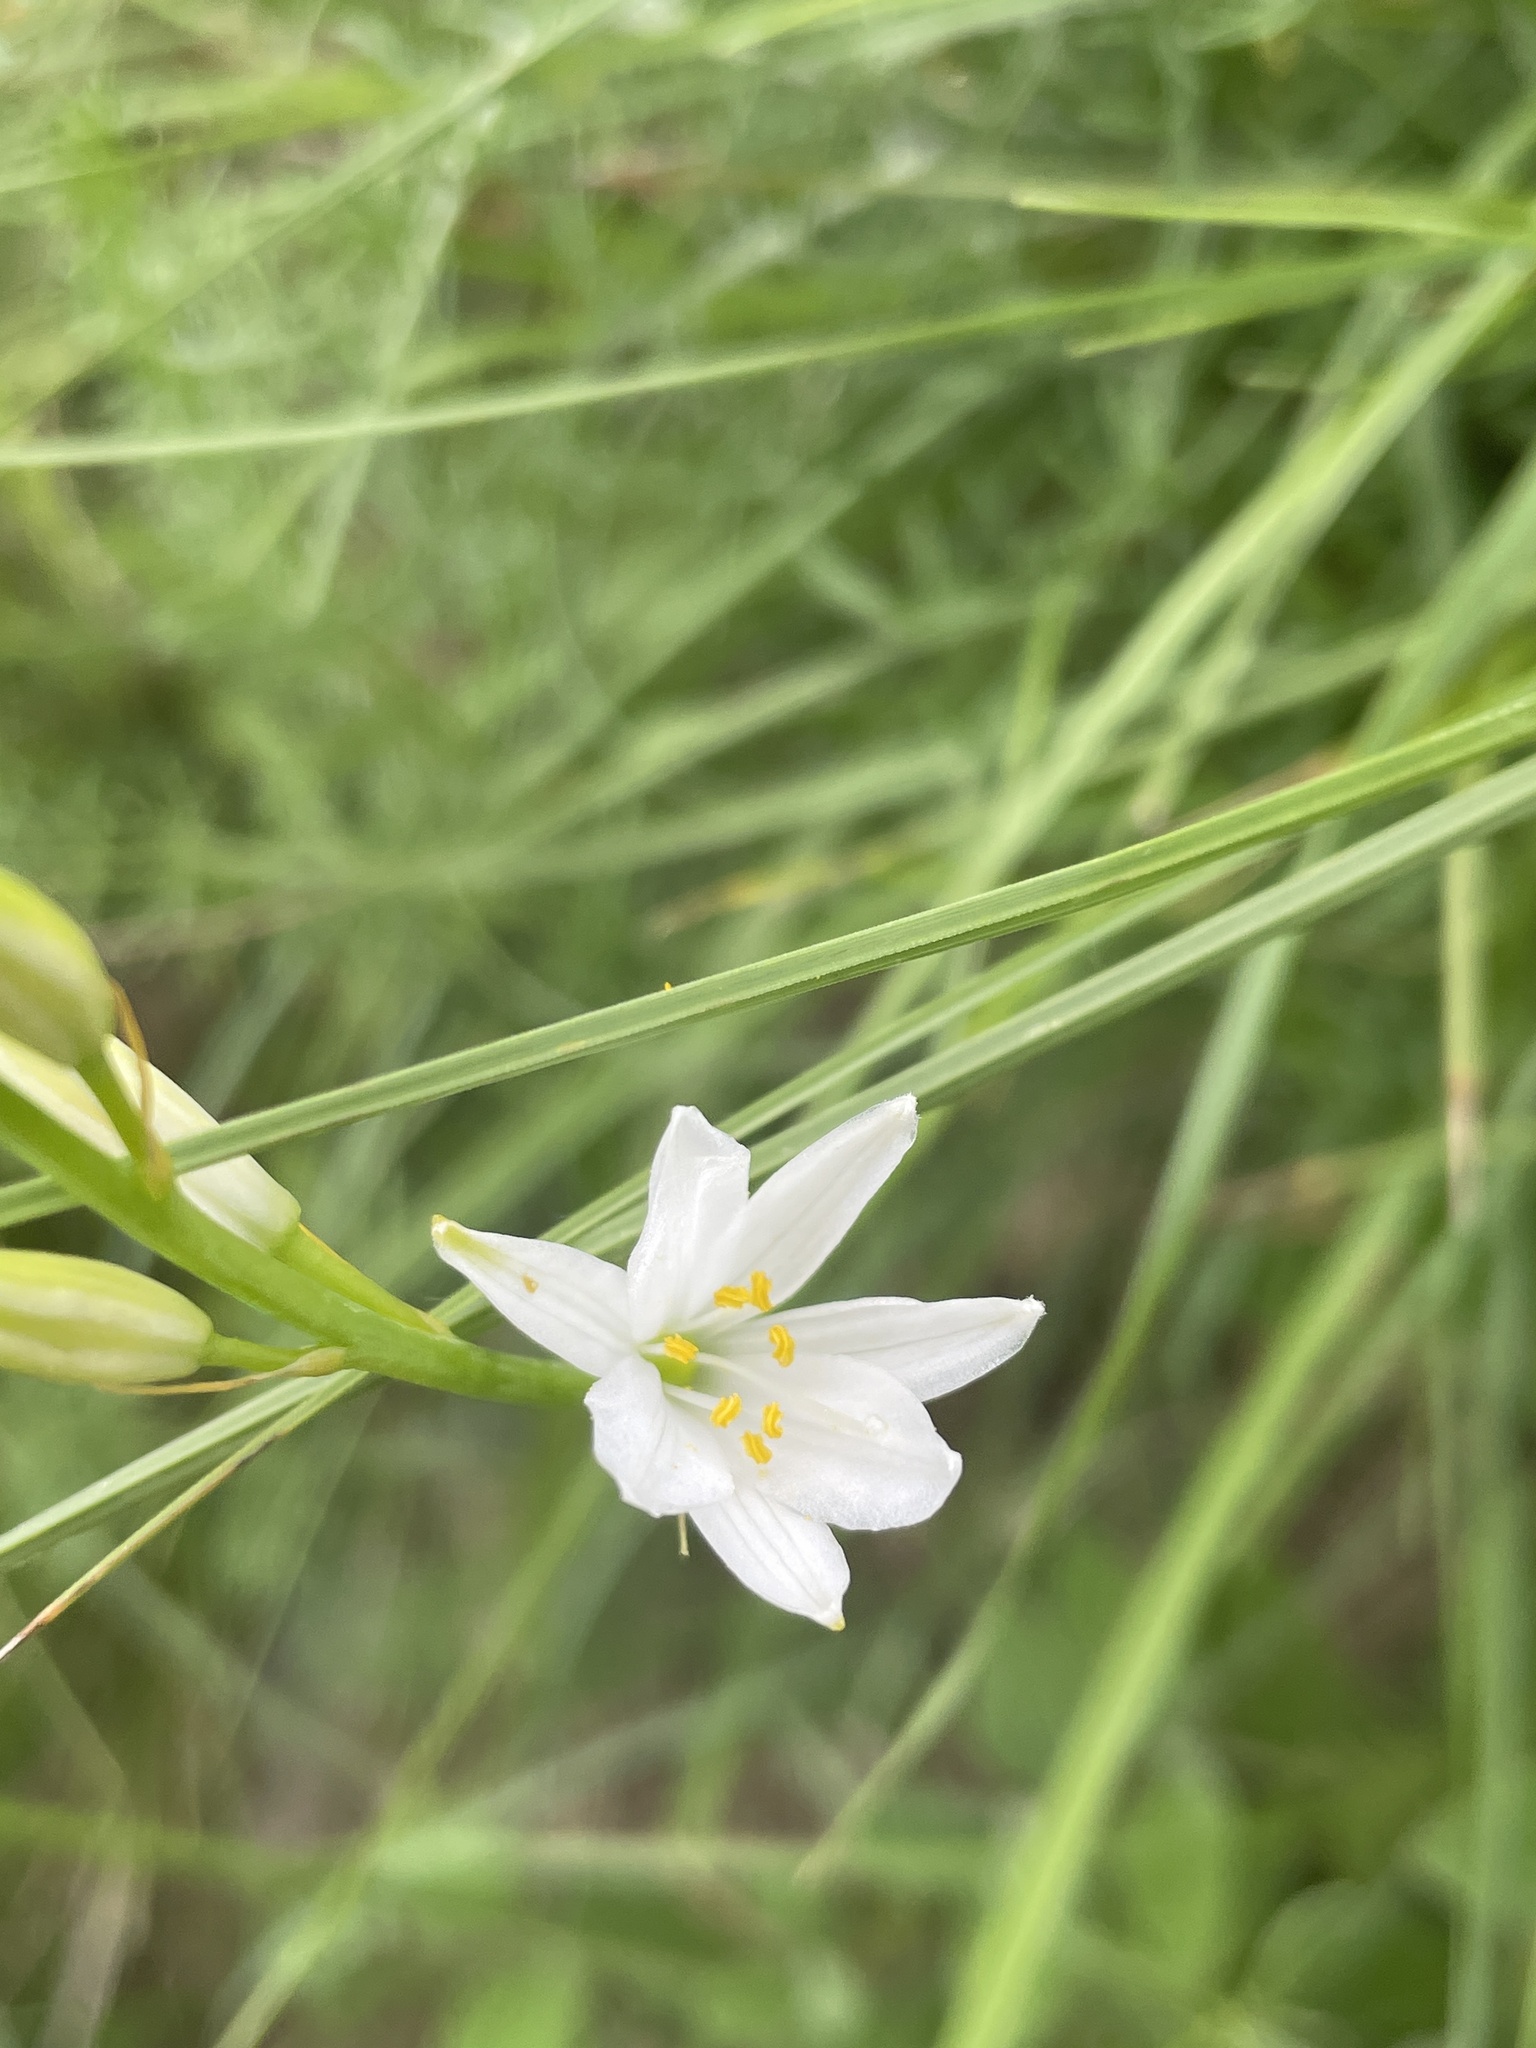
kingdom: Plantae
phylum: Tracheophyta
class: Liliopsida
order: Asparagales
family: Asparagaceae
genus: Anthericum
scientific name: Anthericum liliago
